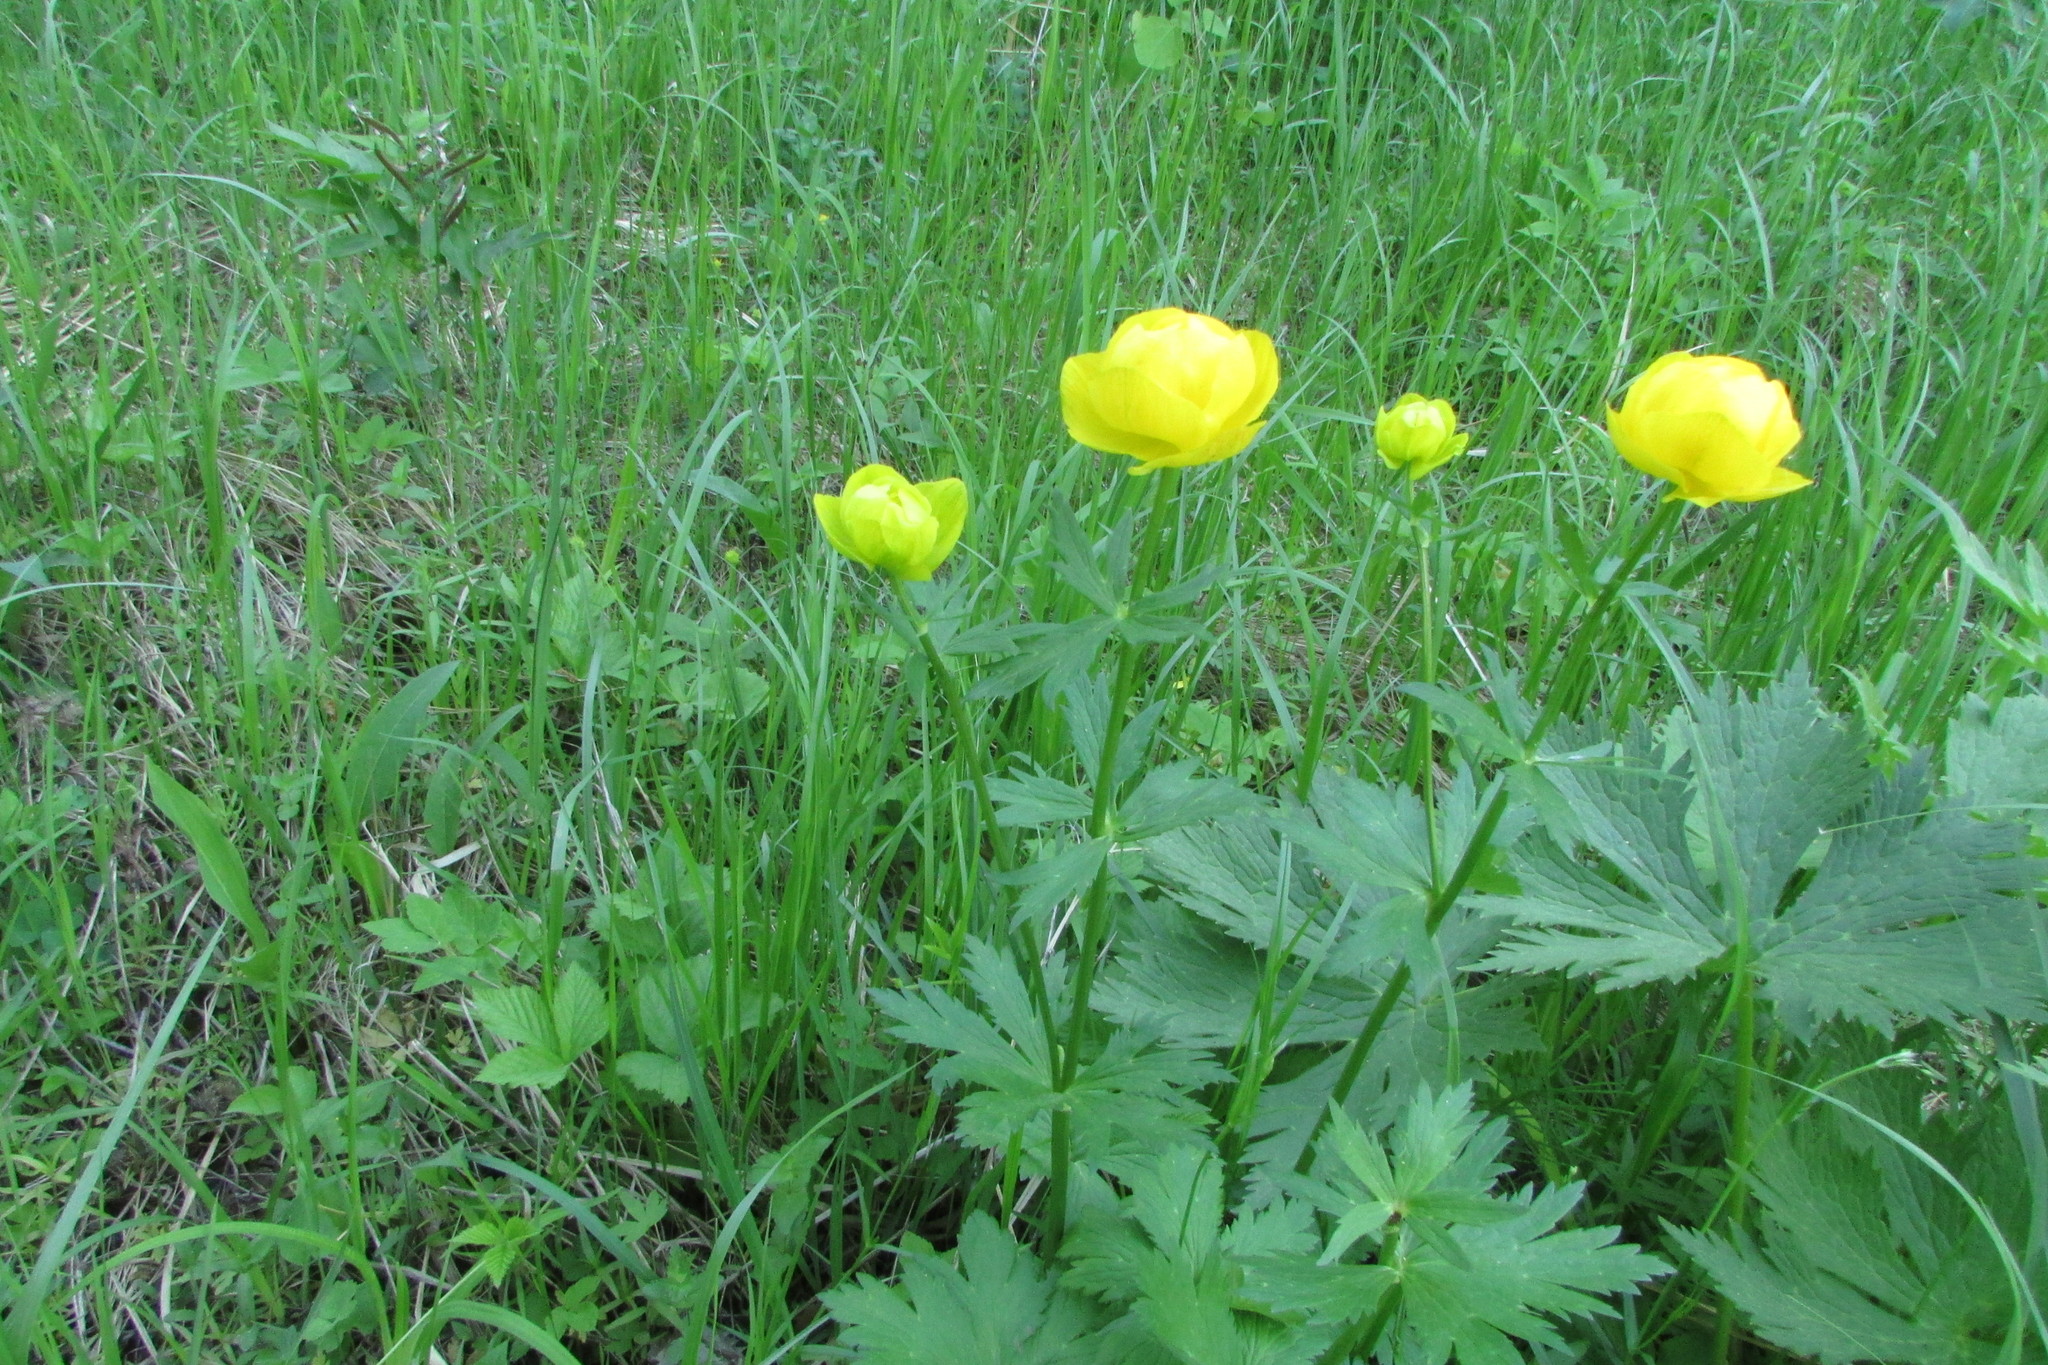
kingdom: Plantae
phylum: Tracheophyta
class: Magnoliopsida
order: Ranunculales
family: Ranunculaceae
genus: Trollius
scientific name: Trollius europaeus
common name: European globeflower
